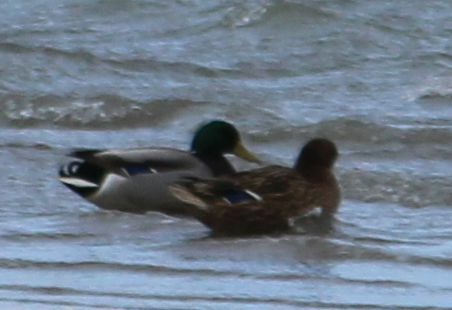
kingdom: Animalia
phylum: Chordata
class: Aves
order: Anseriformes
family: Anatidae
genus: Anas
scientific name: Anas platyrhynchos
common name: Mallard
